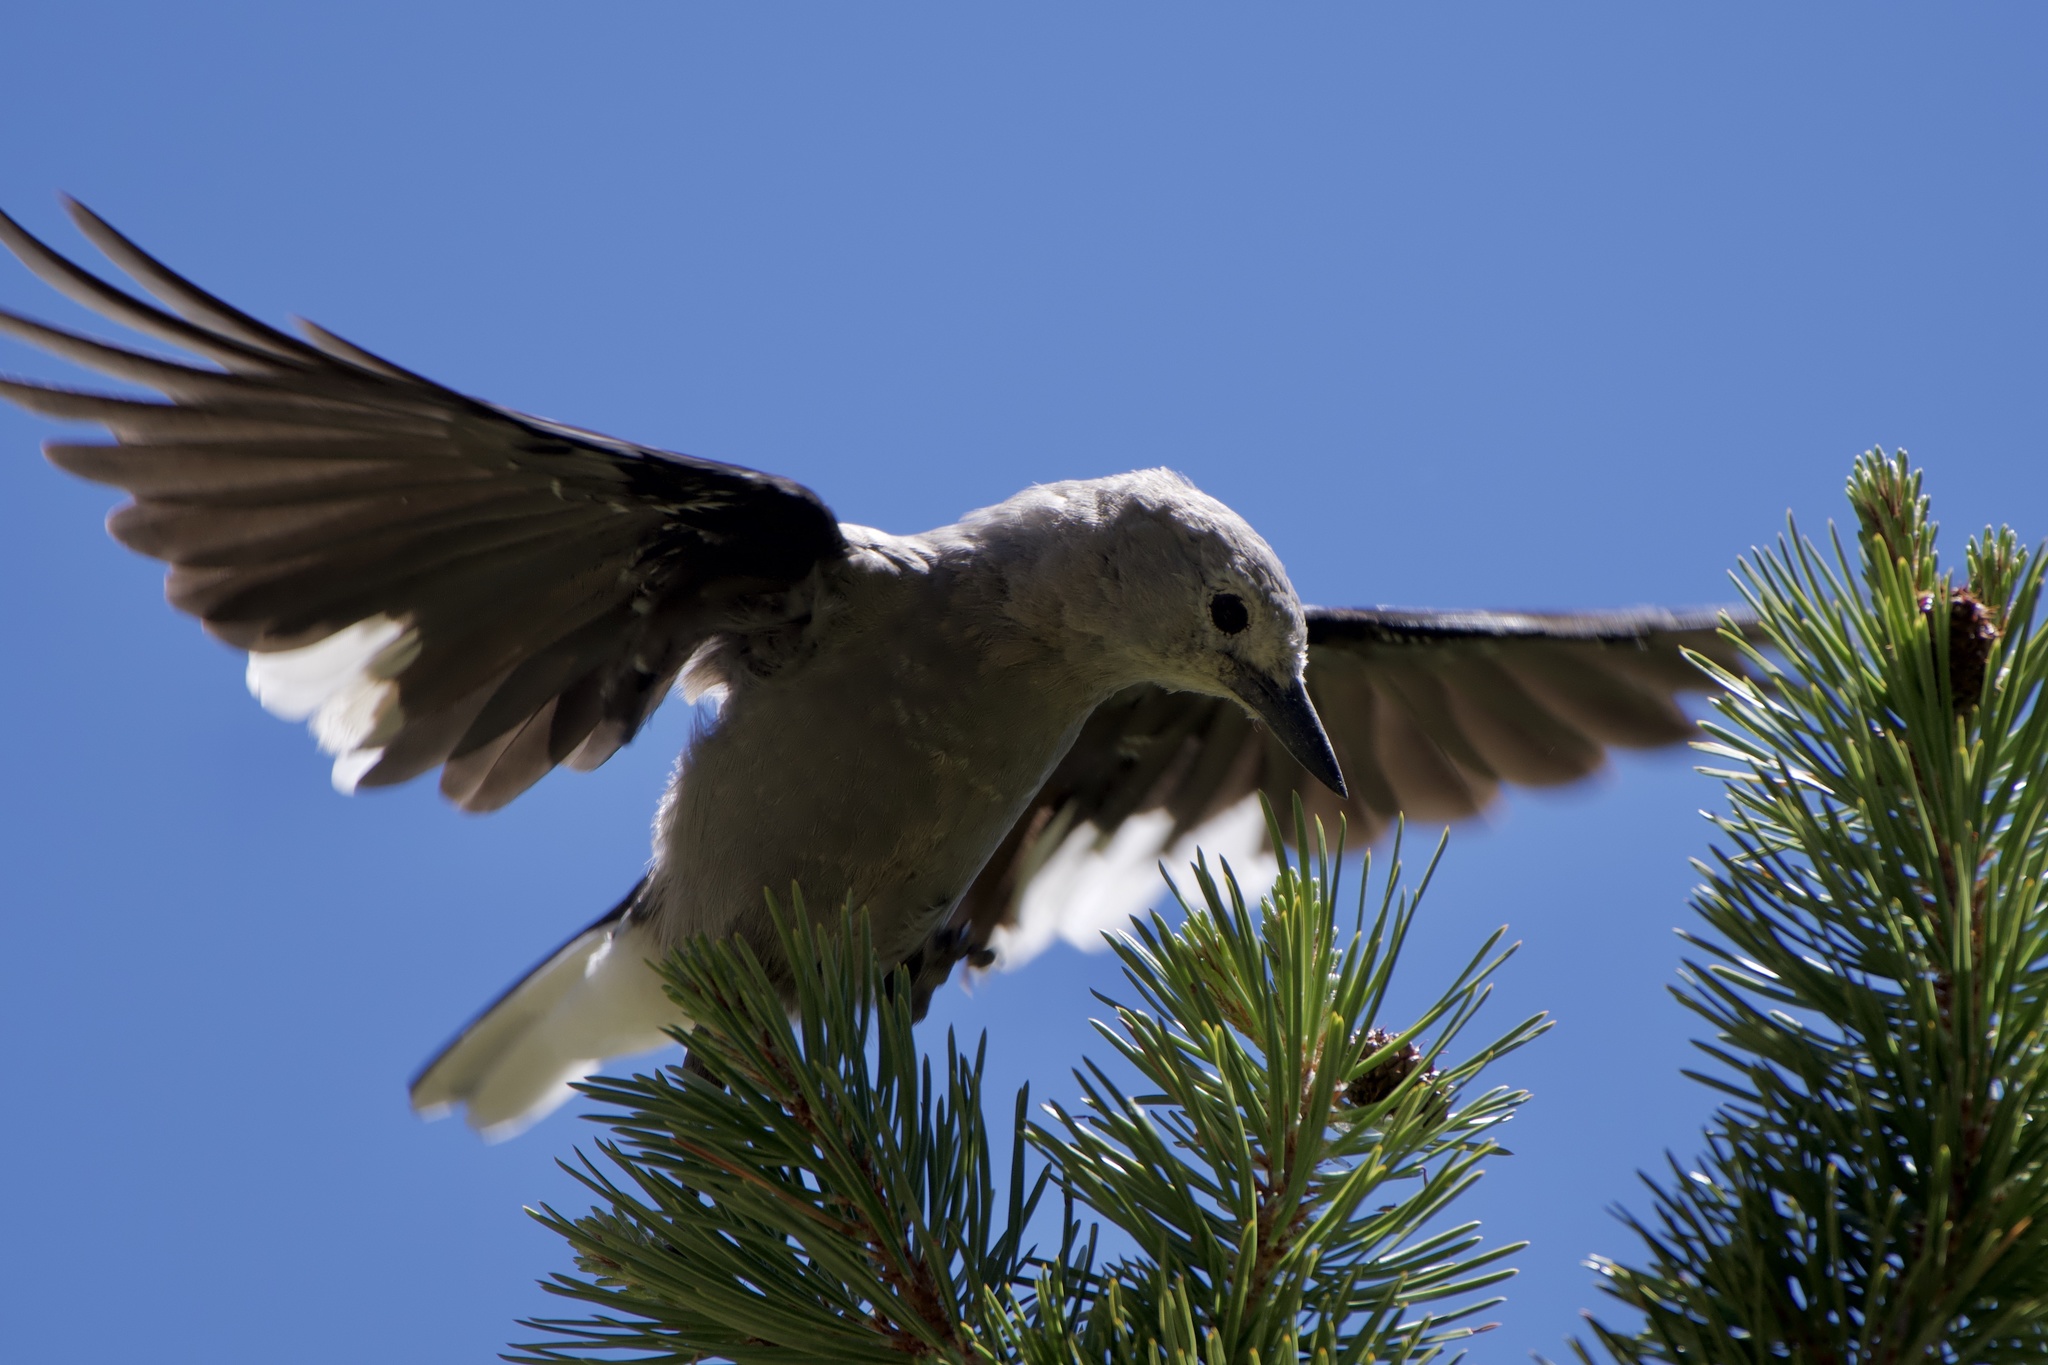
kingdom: Animalia
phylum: Chordata
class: Aves
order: Passeriformes
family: Corvidae
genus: Nucifraga
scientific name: Nucifraga columbiana
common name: Clark's nutcracker
